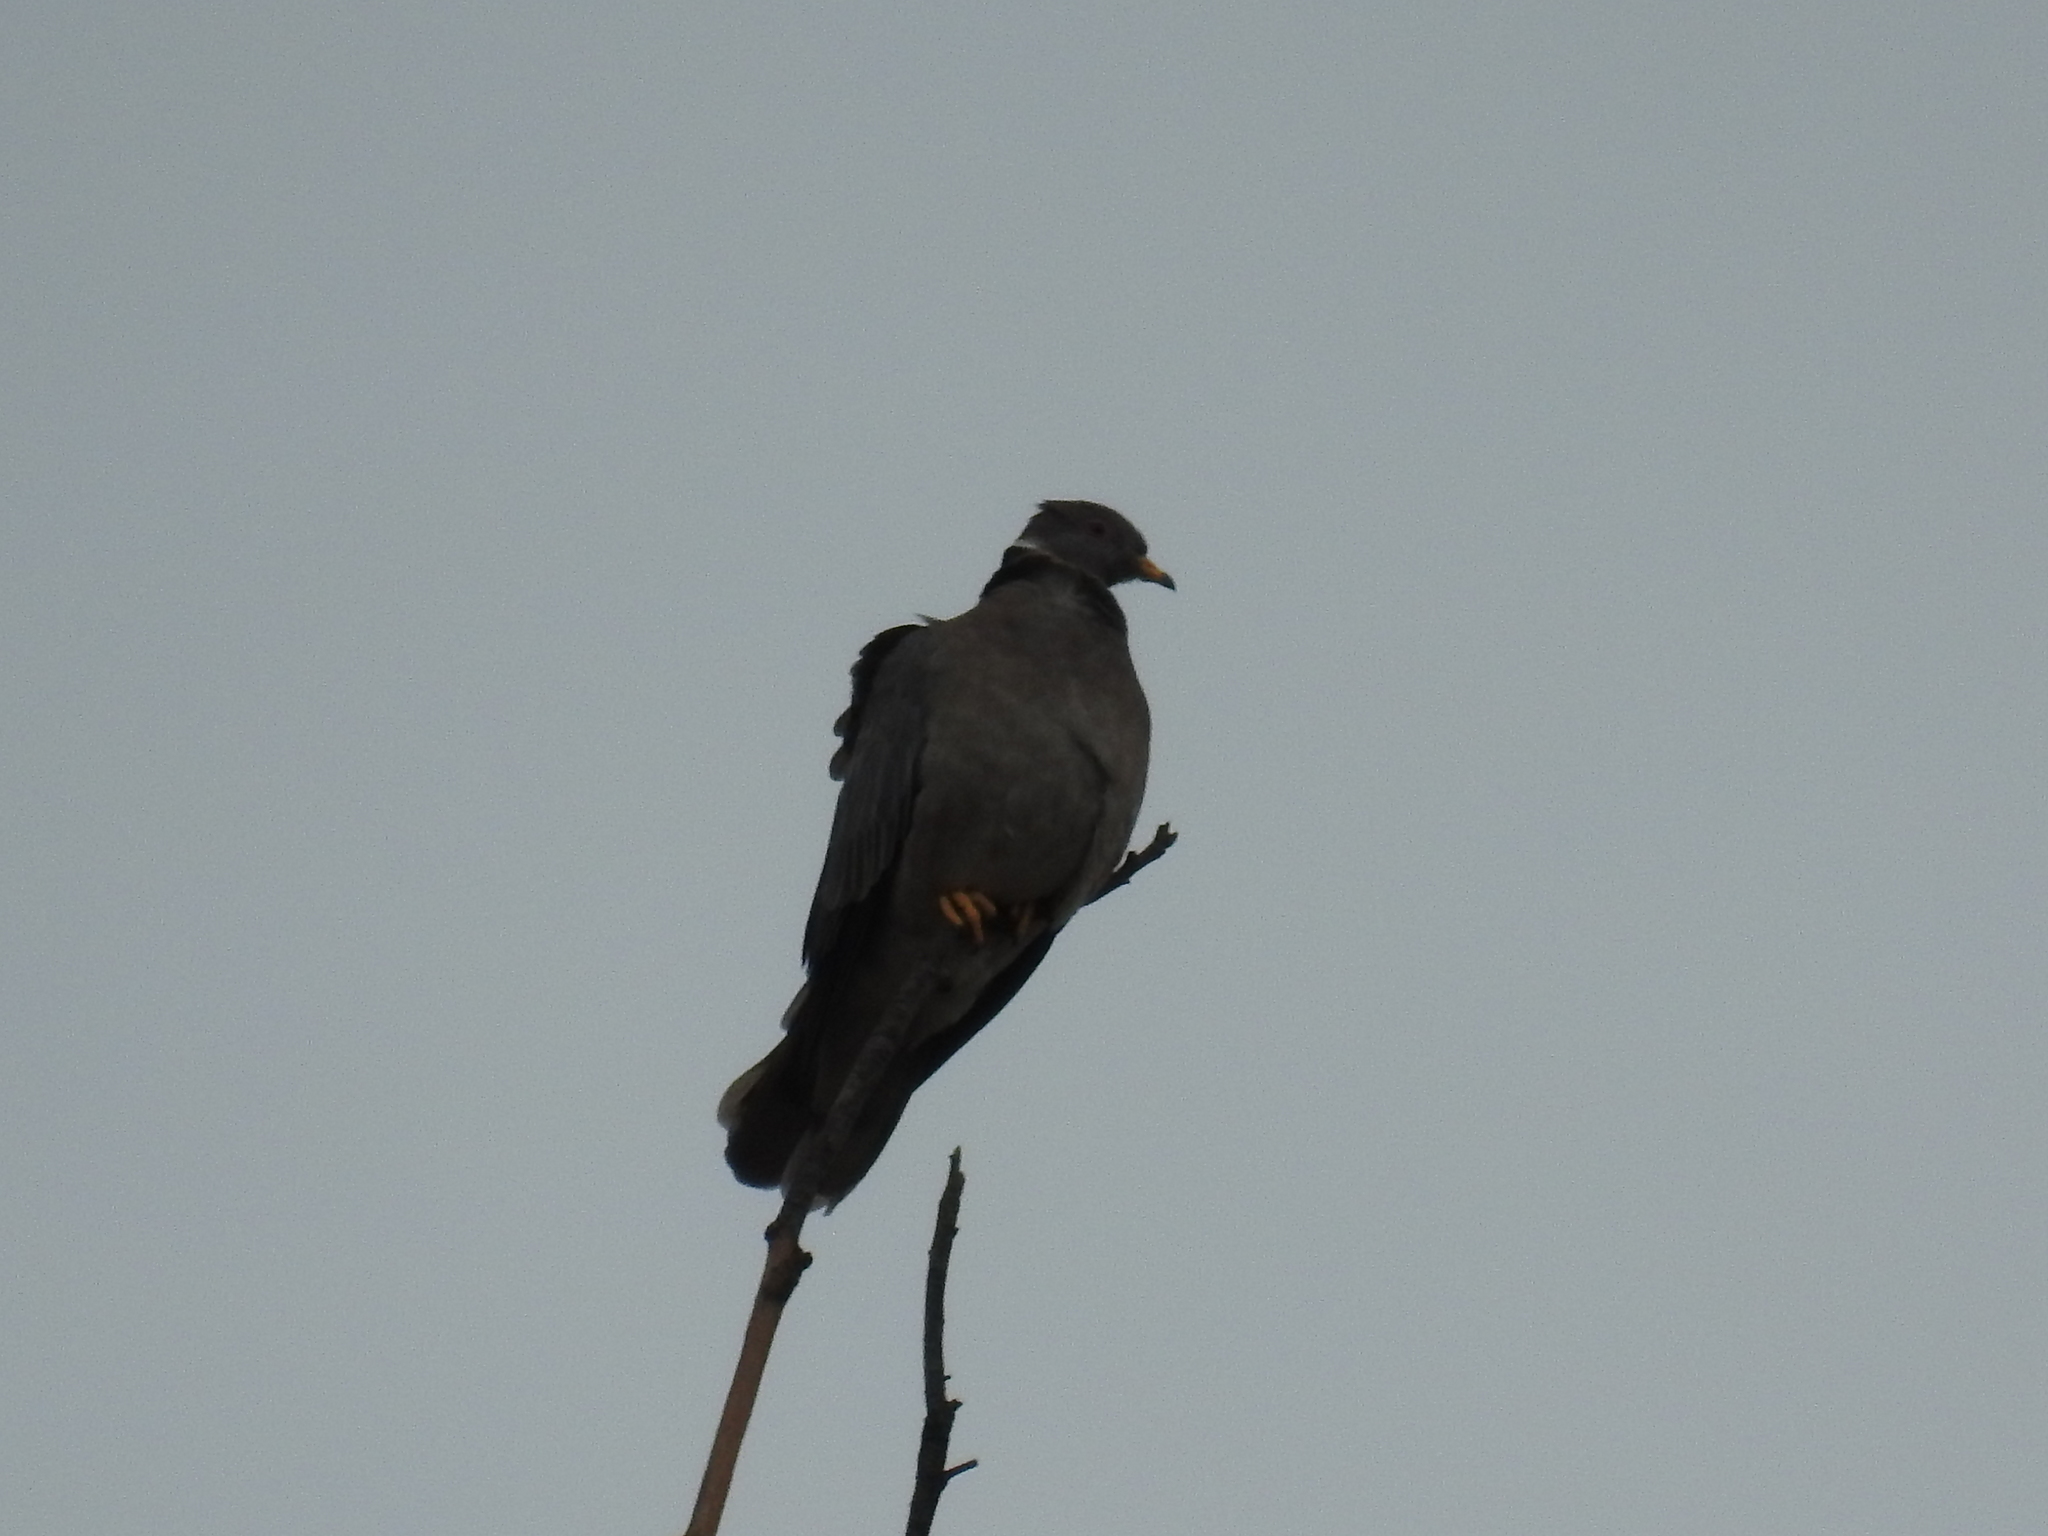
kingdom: Animalia
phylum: Chordata
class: Aves
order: Columbiformes
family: Columbidae
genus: Patagioenas
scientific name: Patagioenas fasciata
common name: Band-tailed pigeon
